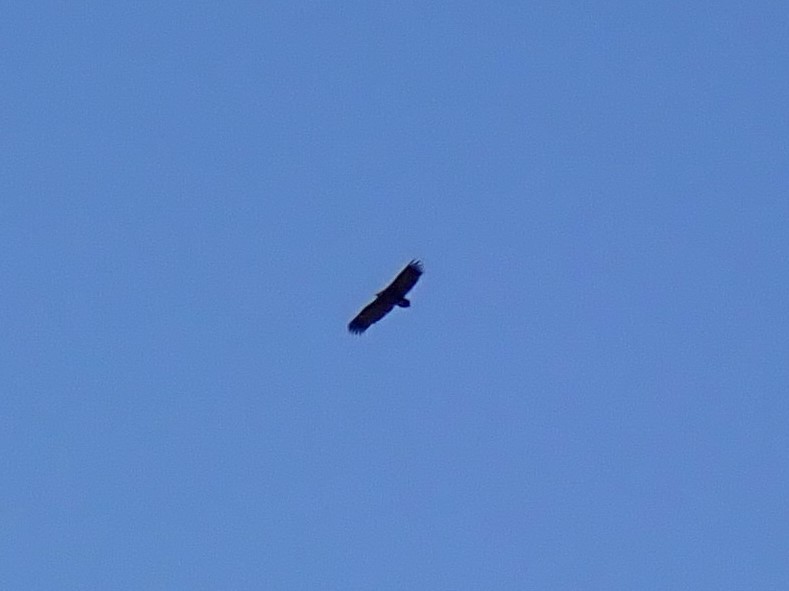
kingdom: Animalia
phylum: Chordata
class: Aves
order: Accipitriformes
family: Accipitridae
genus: Aegypius
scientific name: Aegypius monachus
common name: Cinereous vulture
